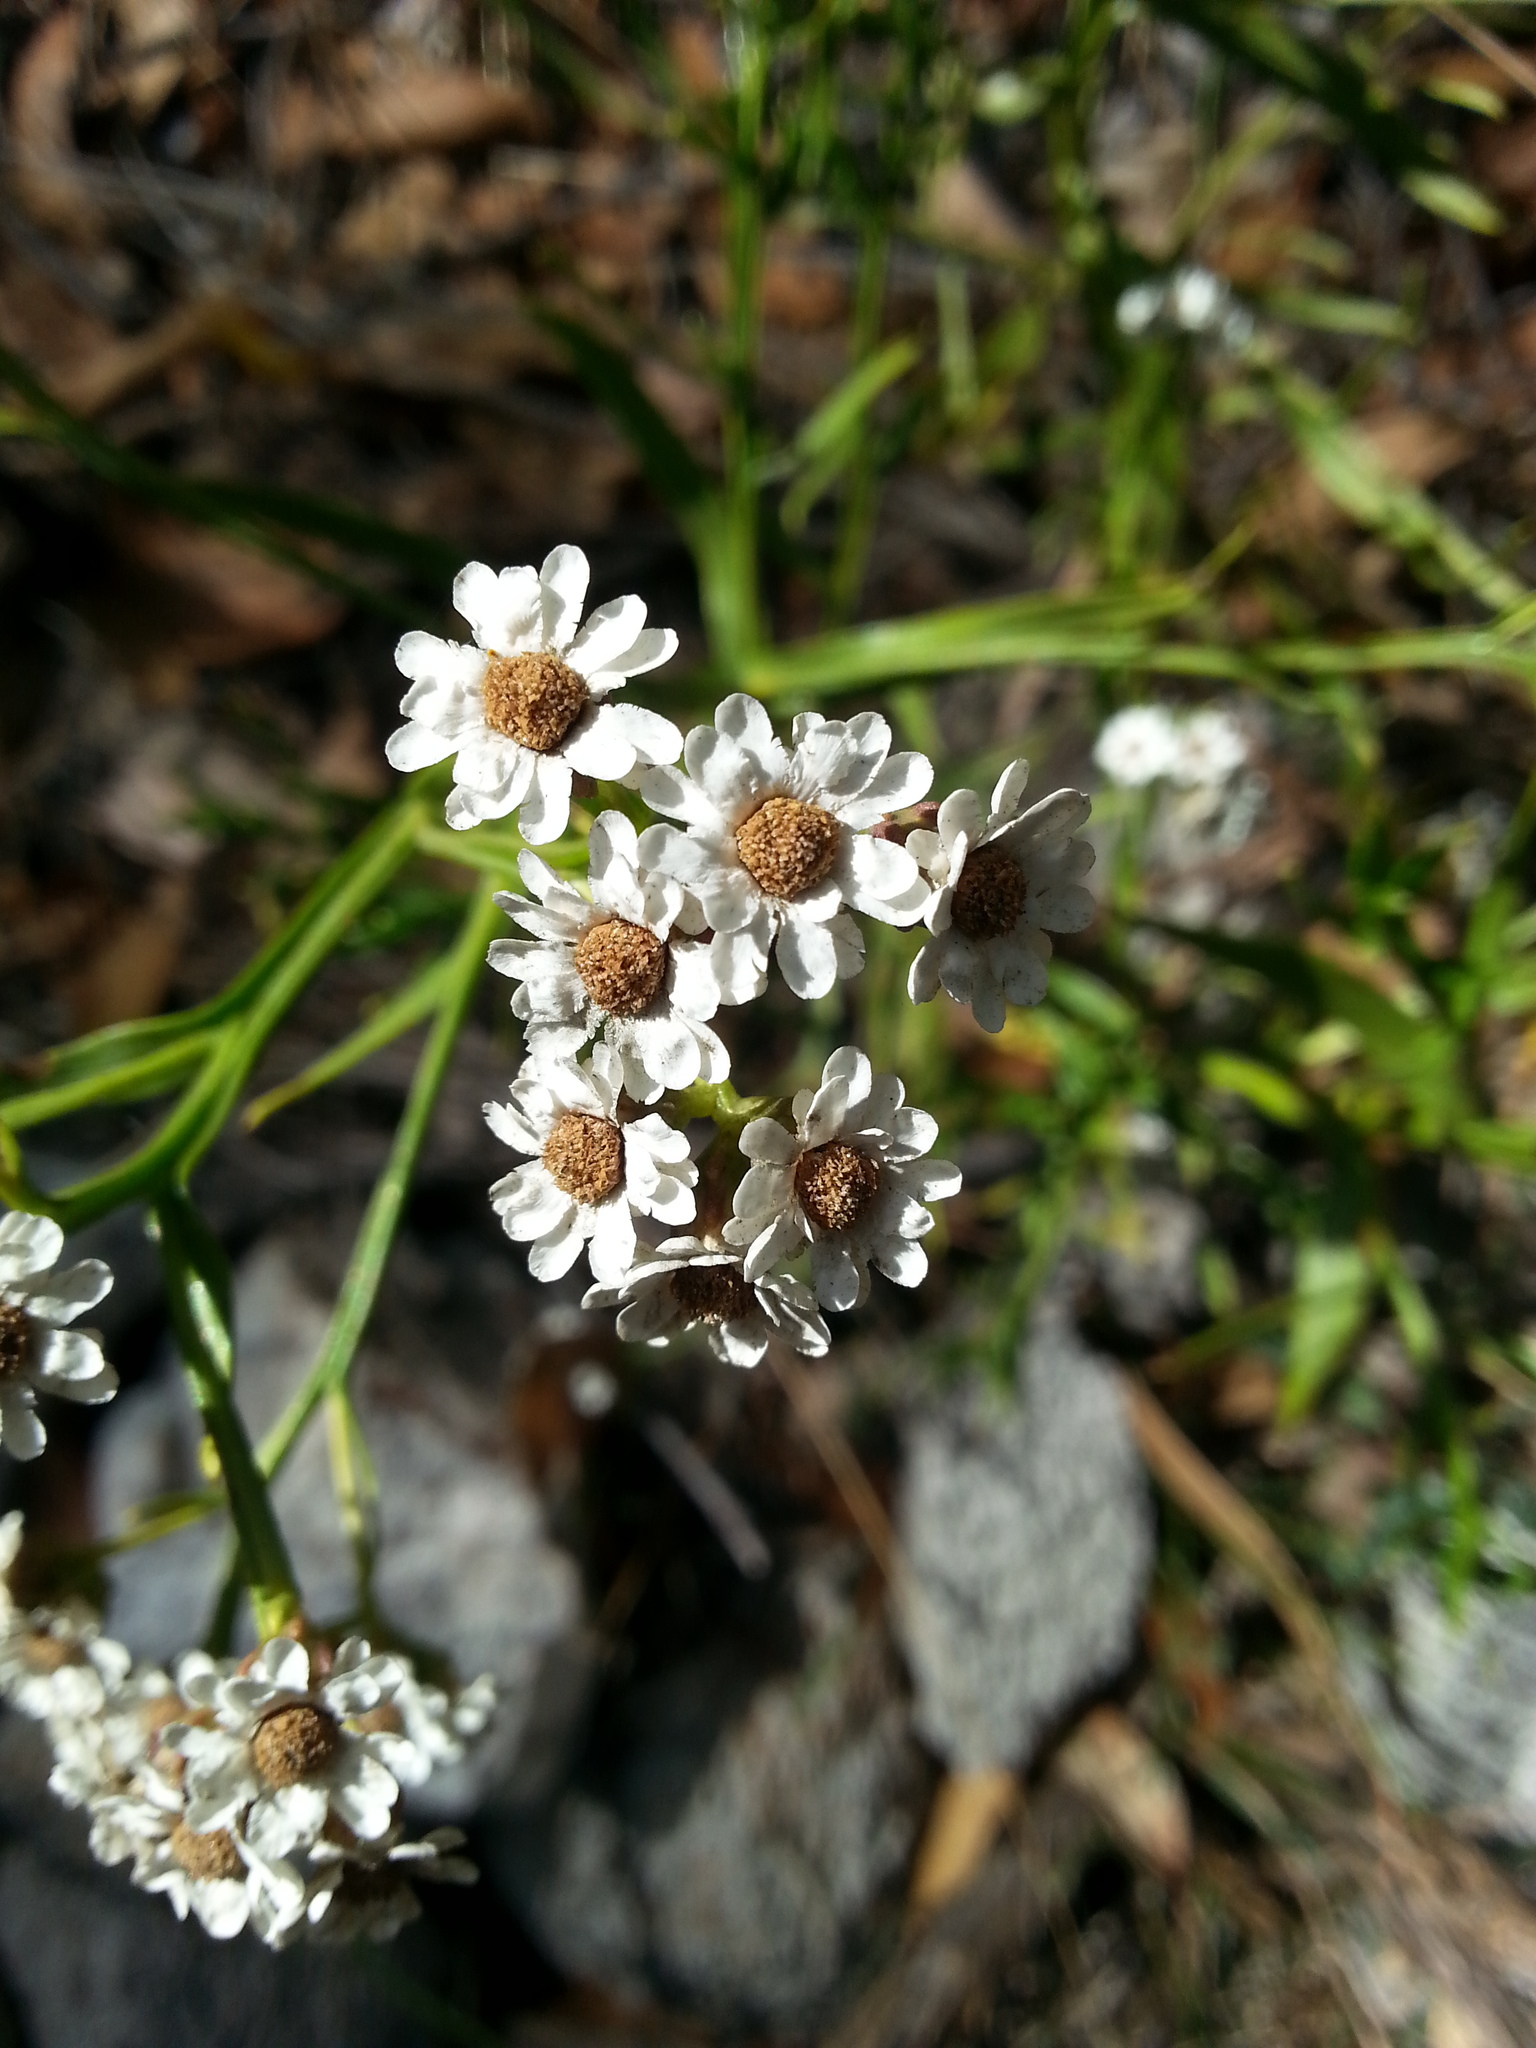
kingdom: Plantae
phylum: Tracheophyta
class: Magnoliopsida
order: Asterales
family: Asteraceae
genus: Ixodia
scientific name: Ixodia achillaeoides
